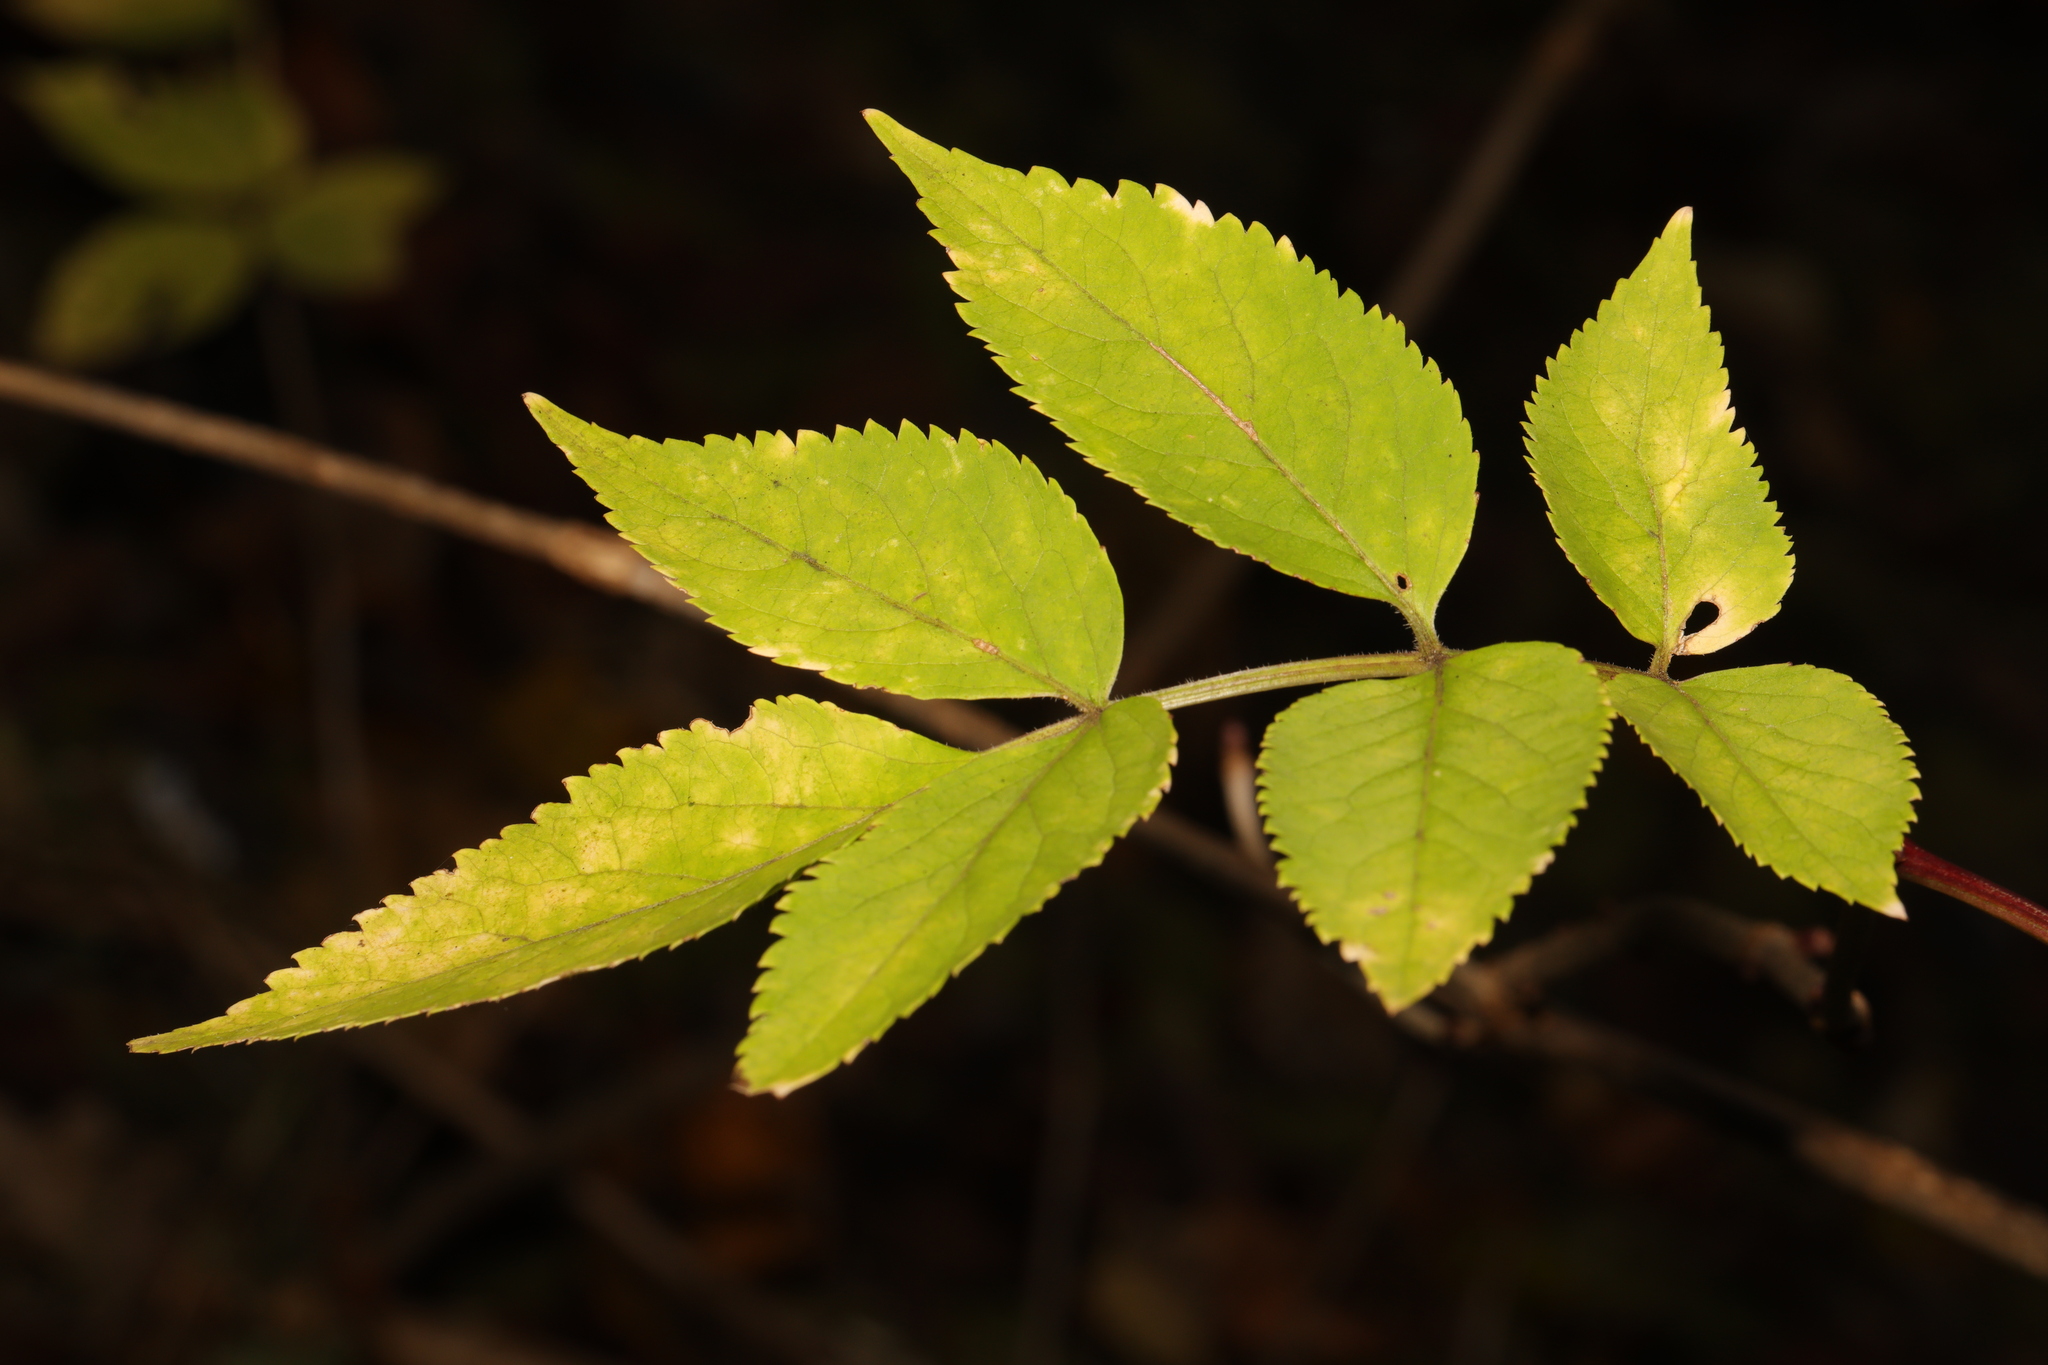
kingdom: Plantae
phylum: Tracheophyta
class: Magnoliopsida
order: Dipsacales
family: Viburnaceae
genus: Sambucus
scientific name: Sambucus nigra
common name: Elder
